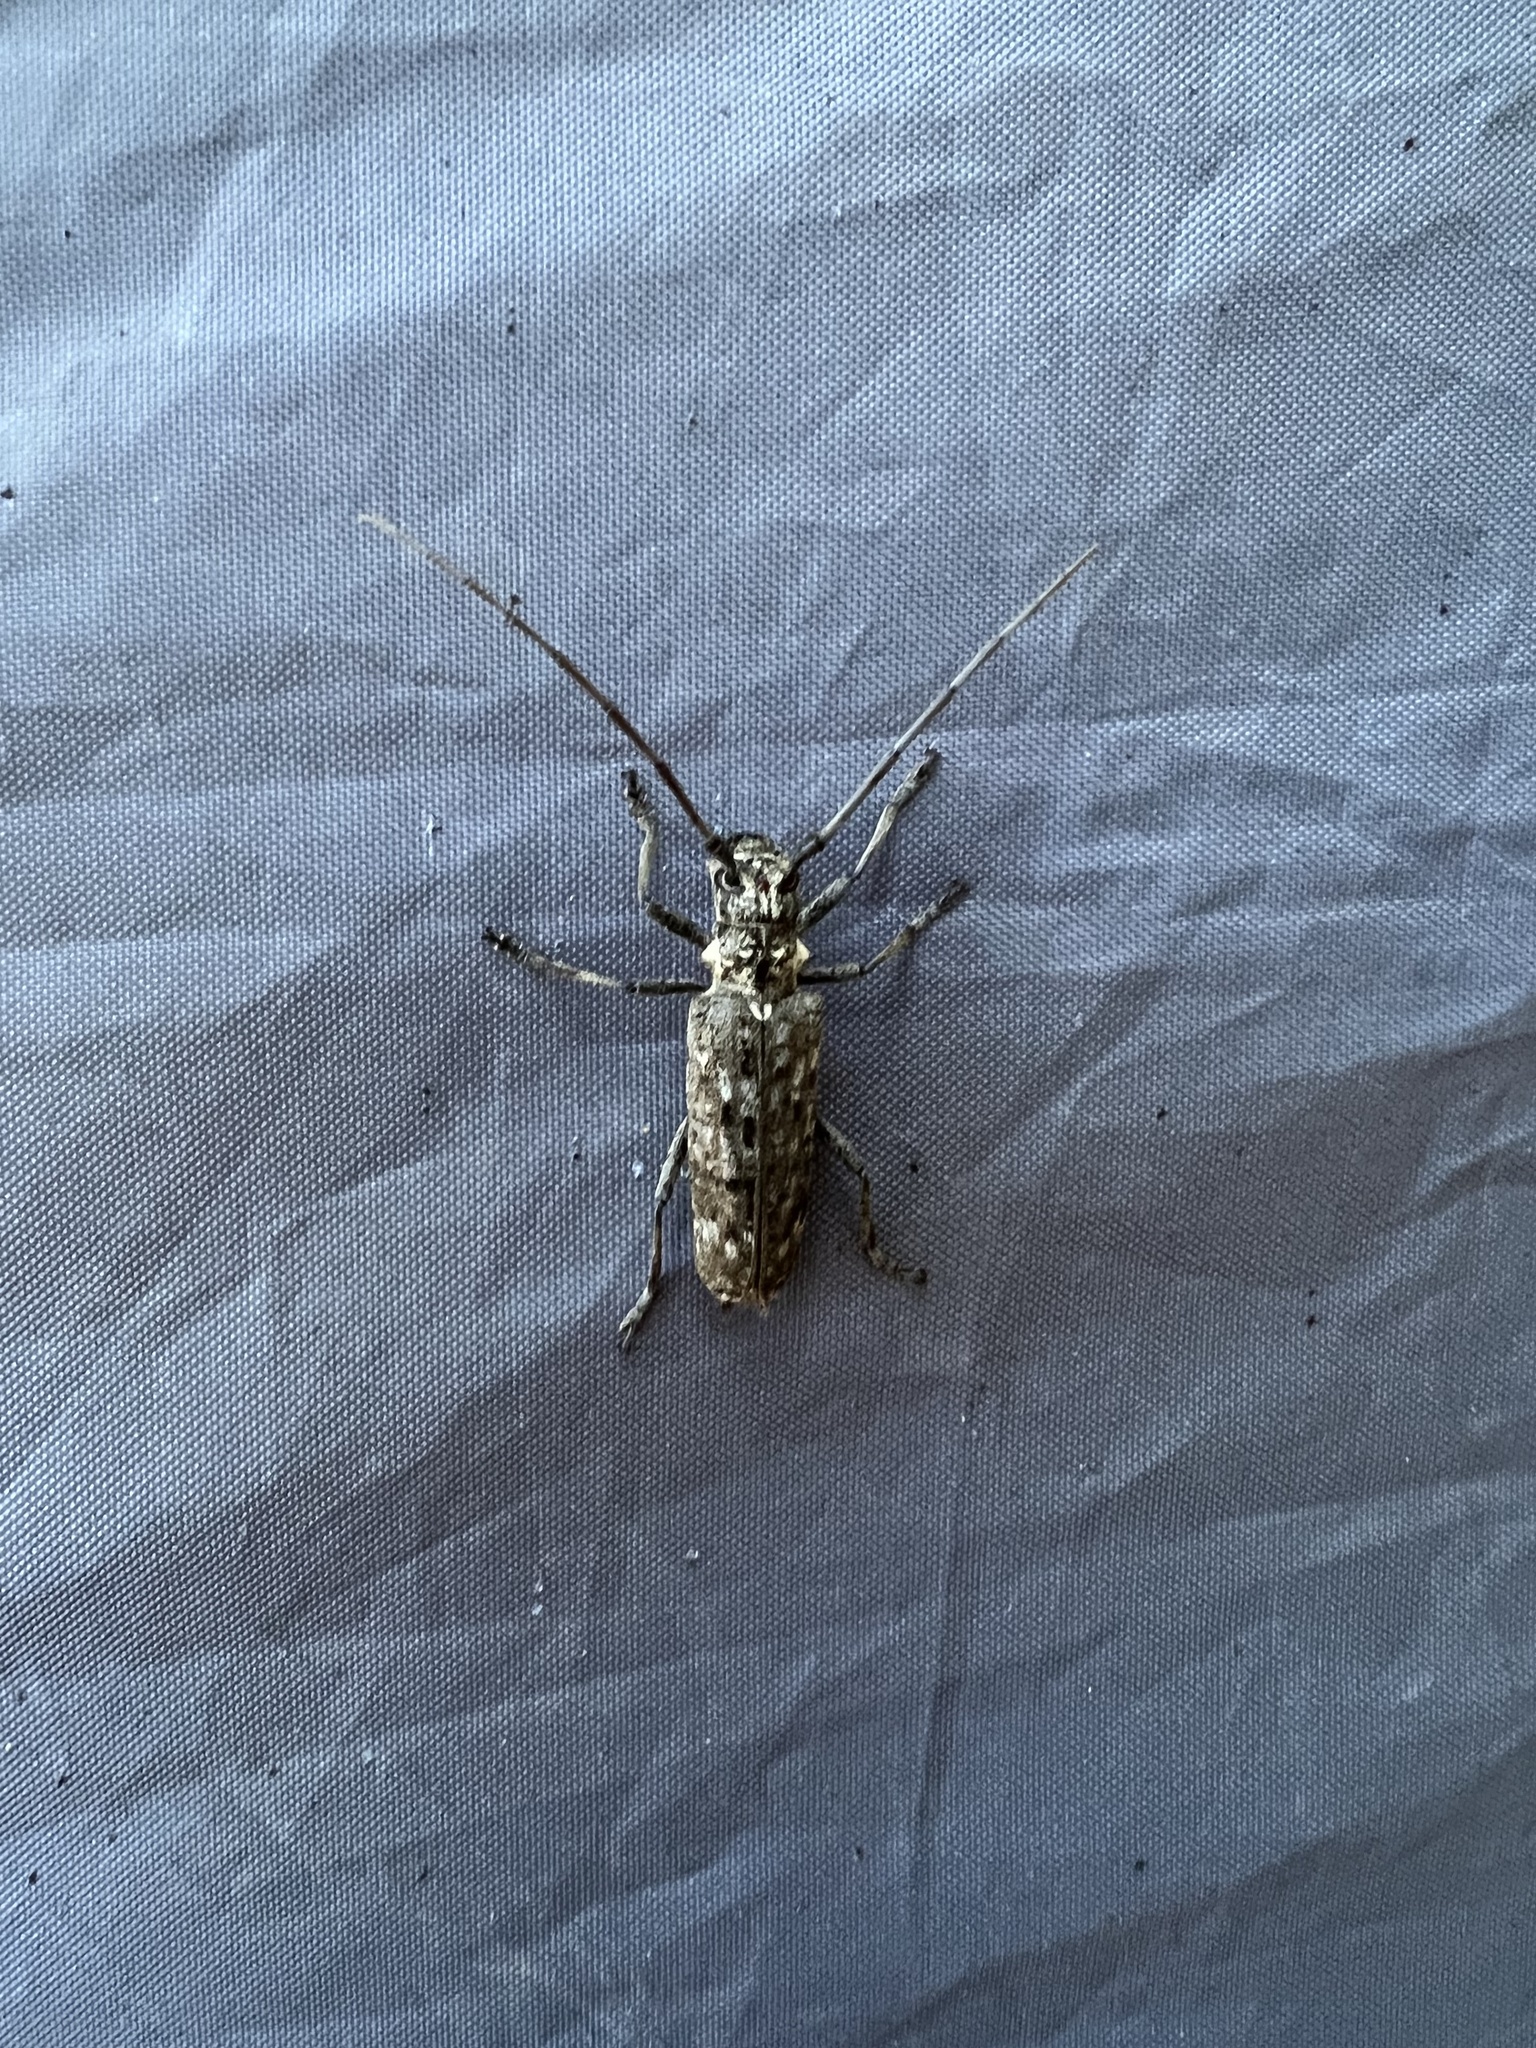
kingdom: Animalia
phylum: Arthropoda
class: Insecta
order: Coleoptera
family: Cerambycidae
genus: Monochamus
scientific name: Monochamus notatus
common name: Northeastern pine sawyer beetle
